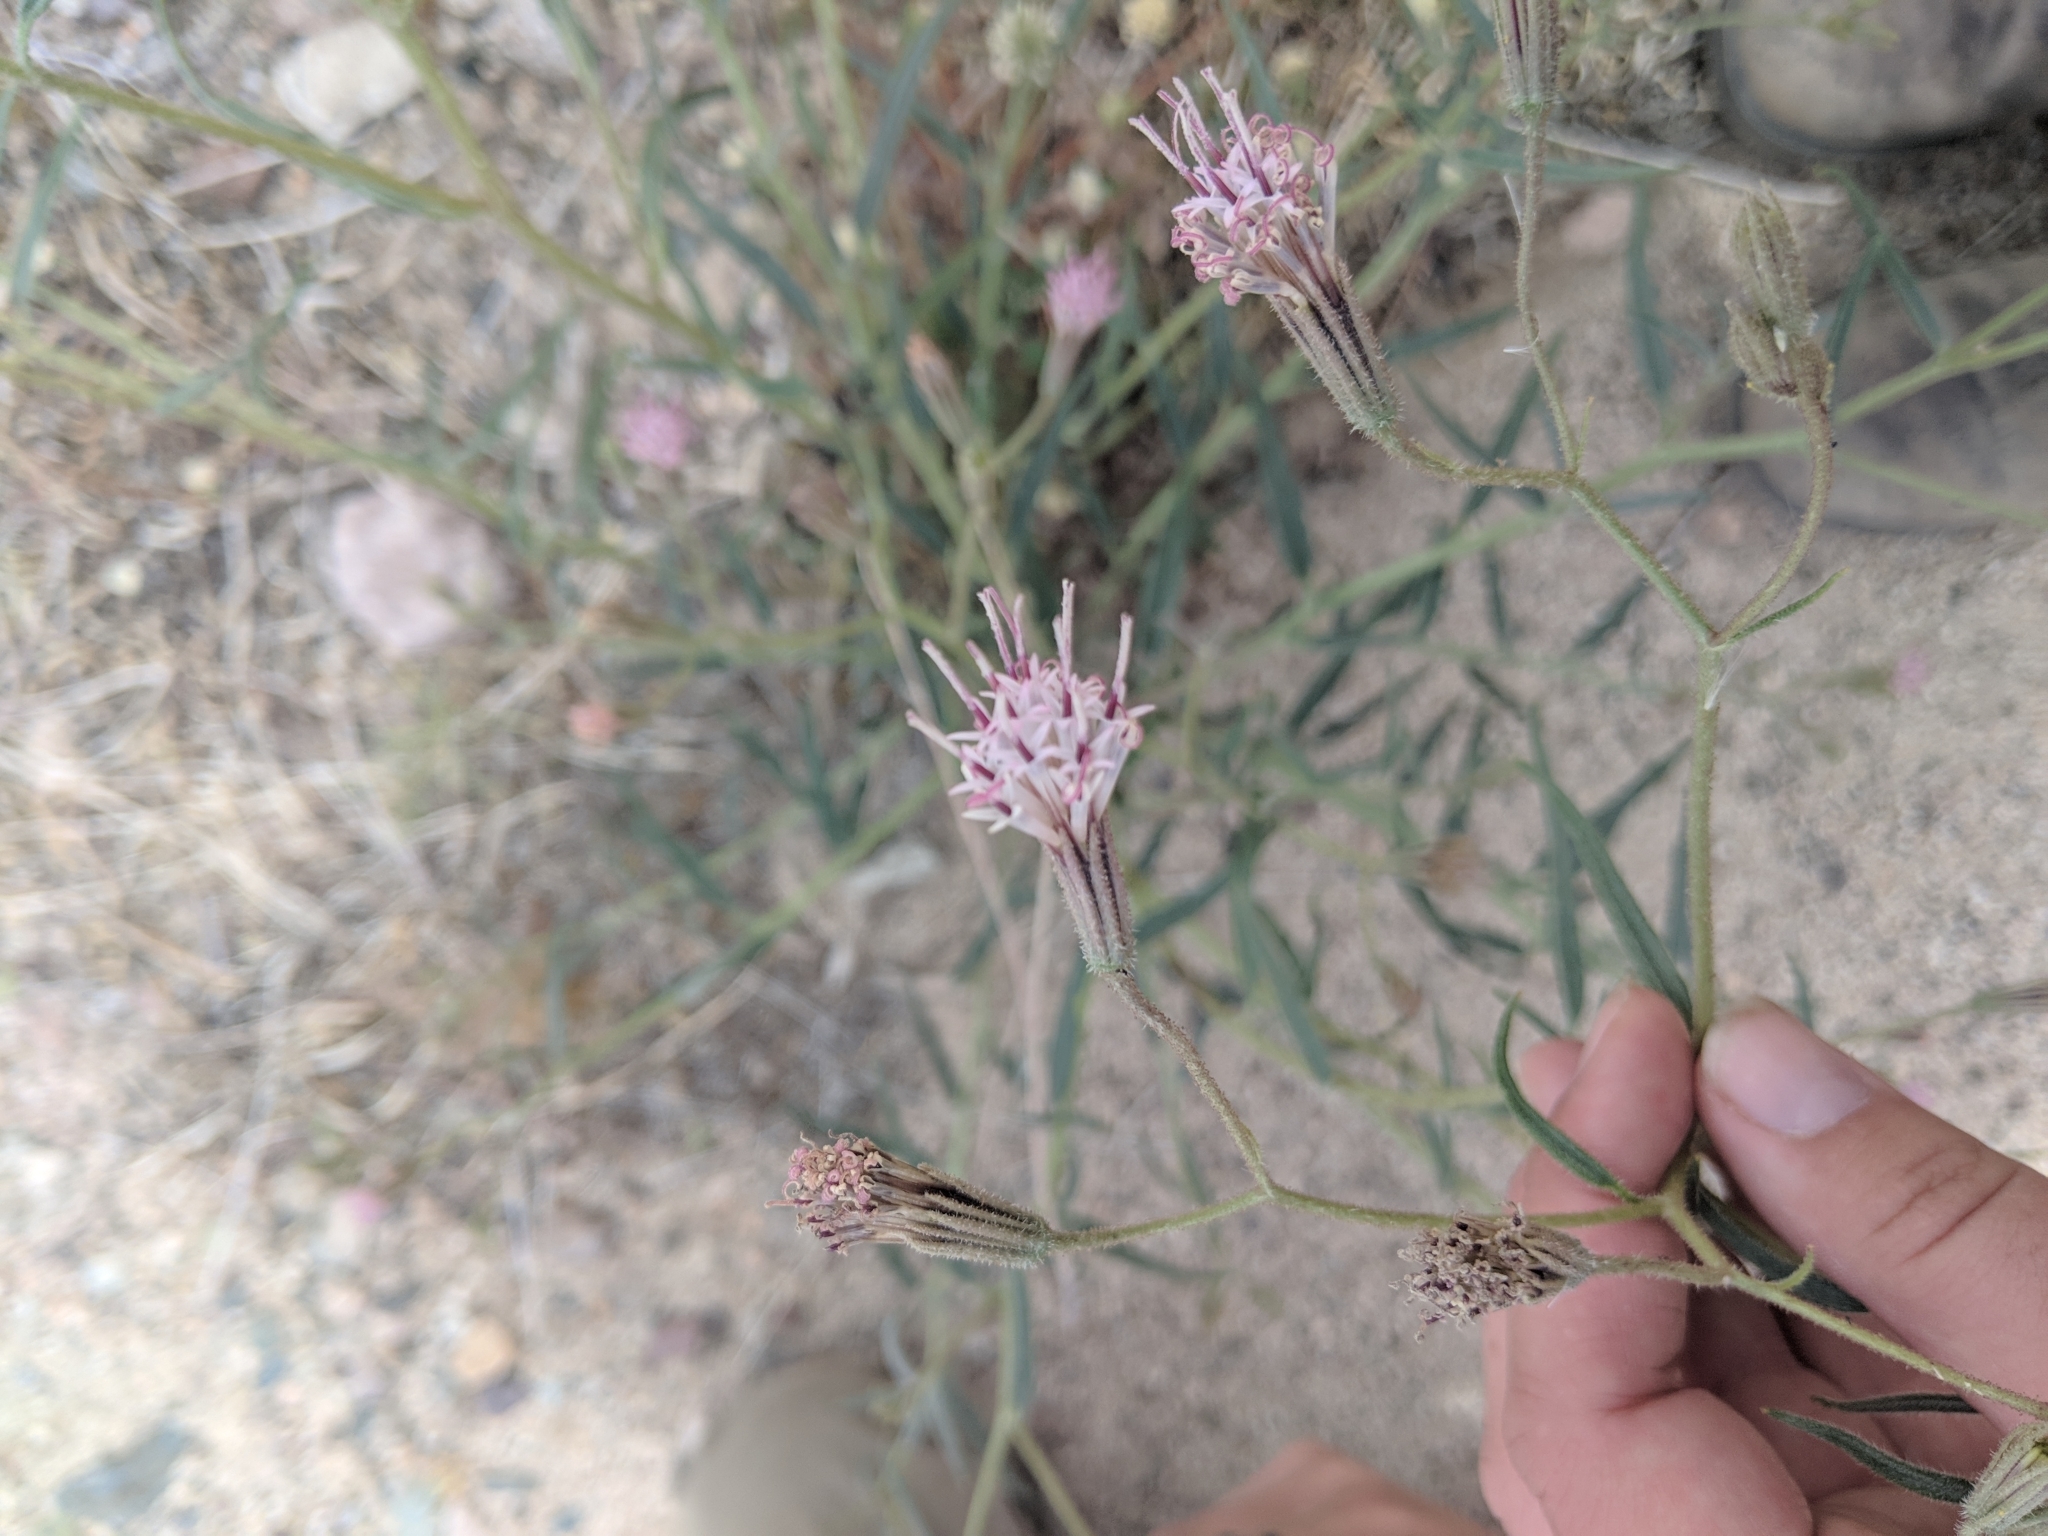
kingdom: Plantae
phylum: Tracheophyta
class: Magnoliopsida
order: Asterales
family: Asteraceae
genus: Palafoxia
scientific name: Palafoxia arida
